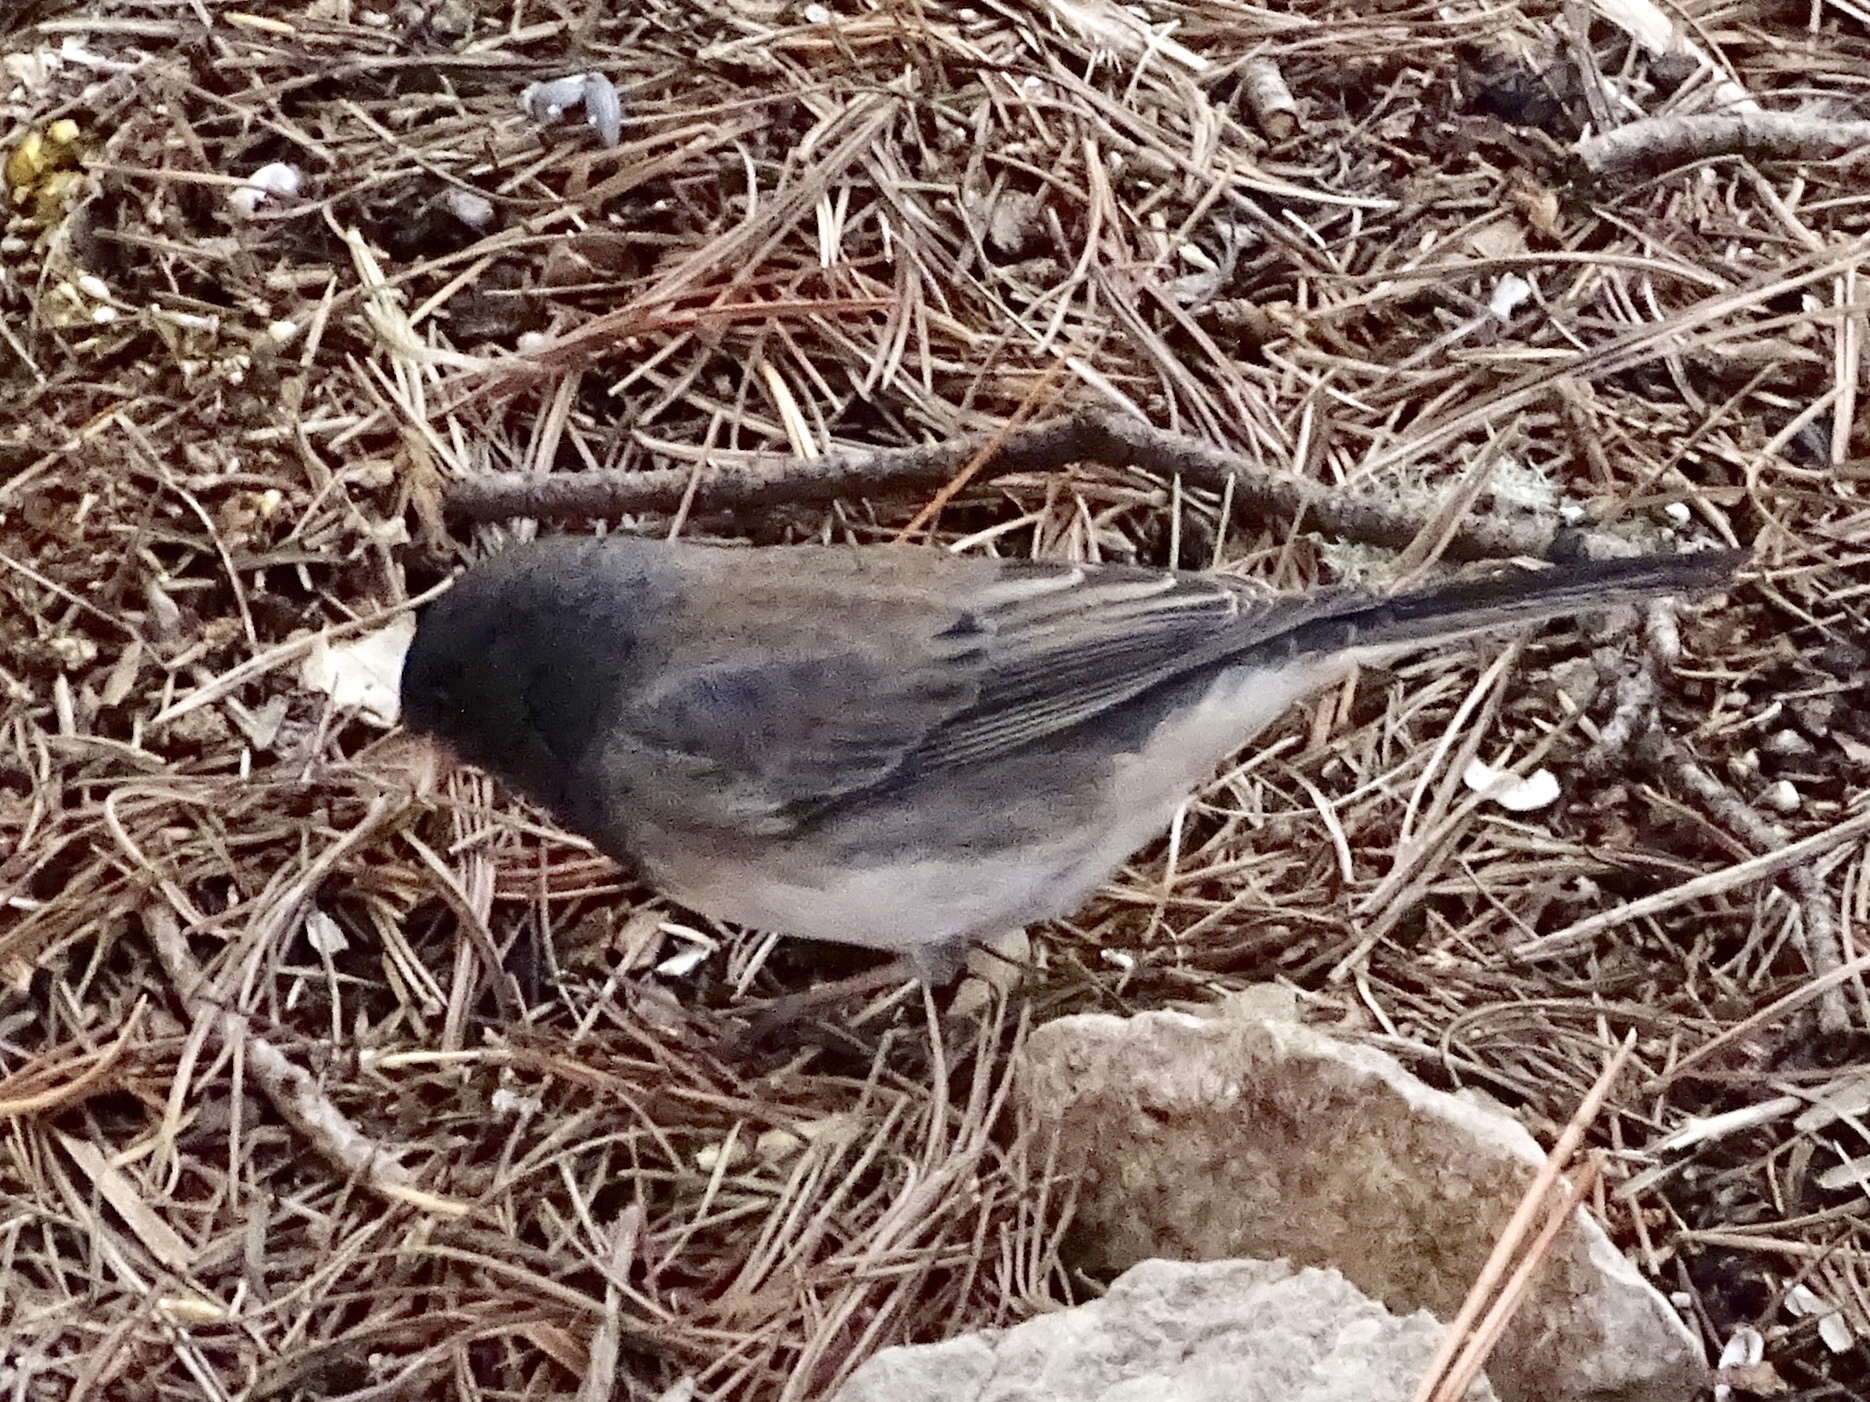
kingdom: Animalia
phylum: Chordata
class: Aves
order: Passeriformes
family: Passerellidae
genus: Junco
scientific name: Junco hyemalis
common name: Dark-eyed junco
